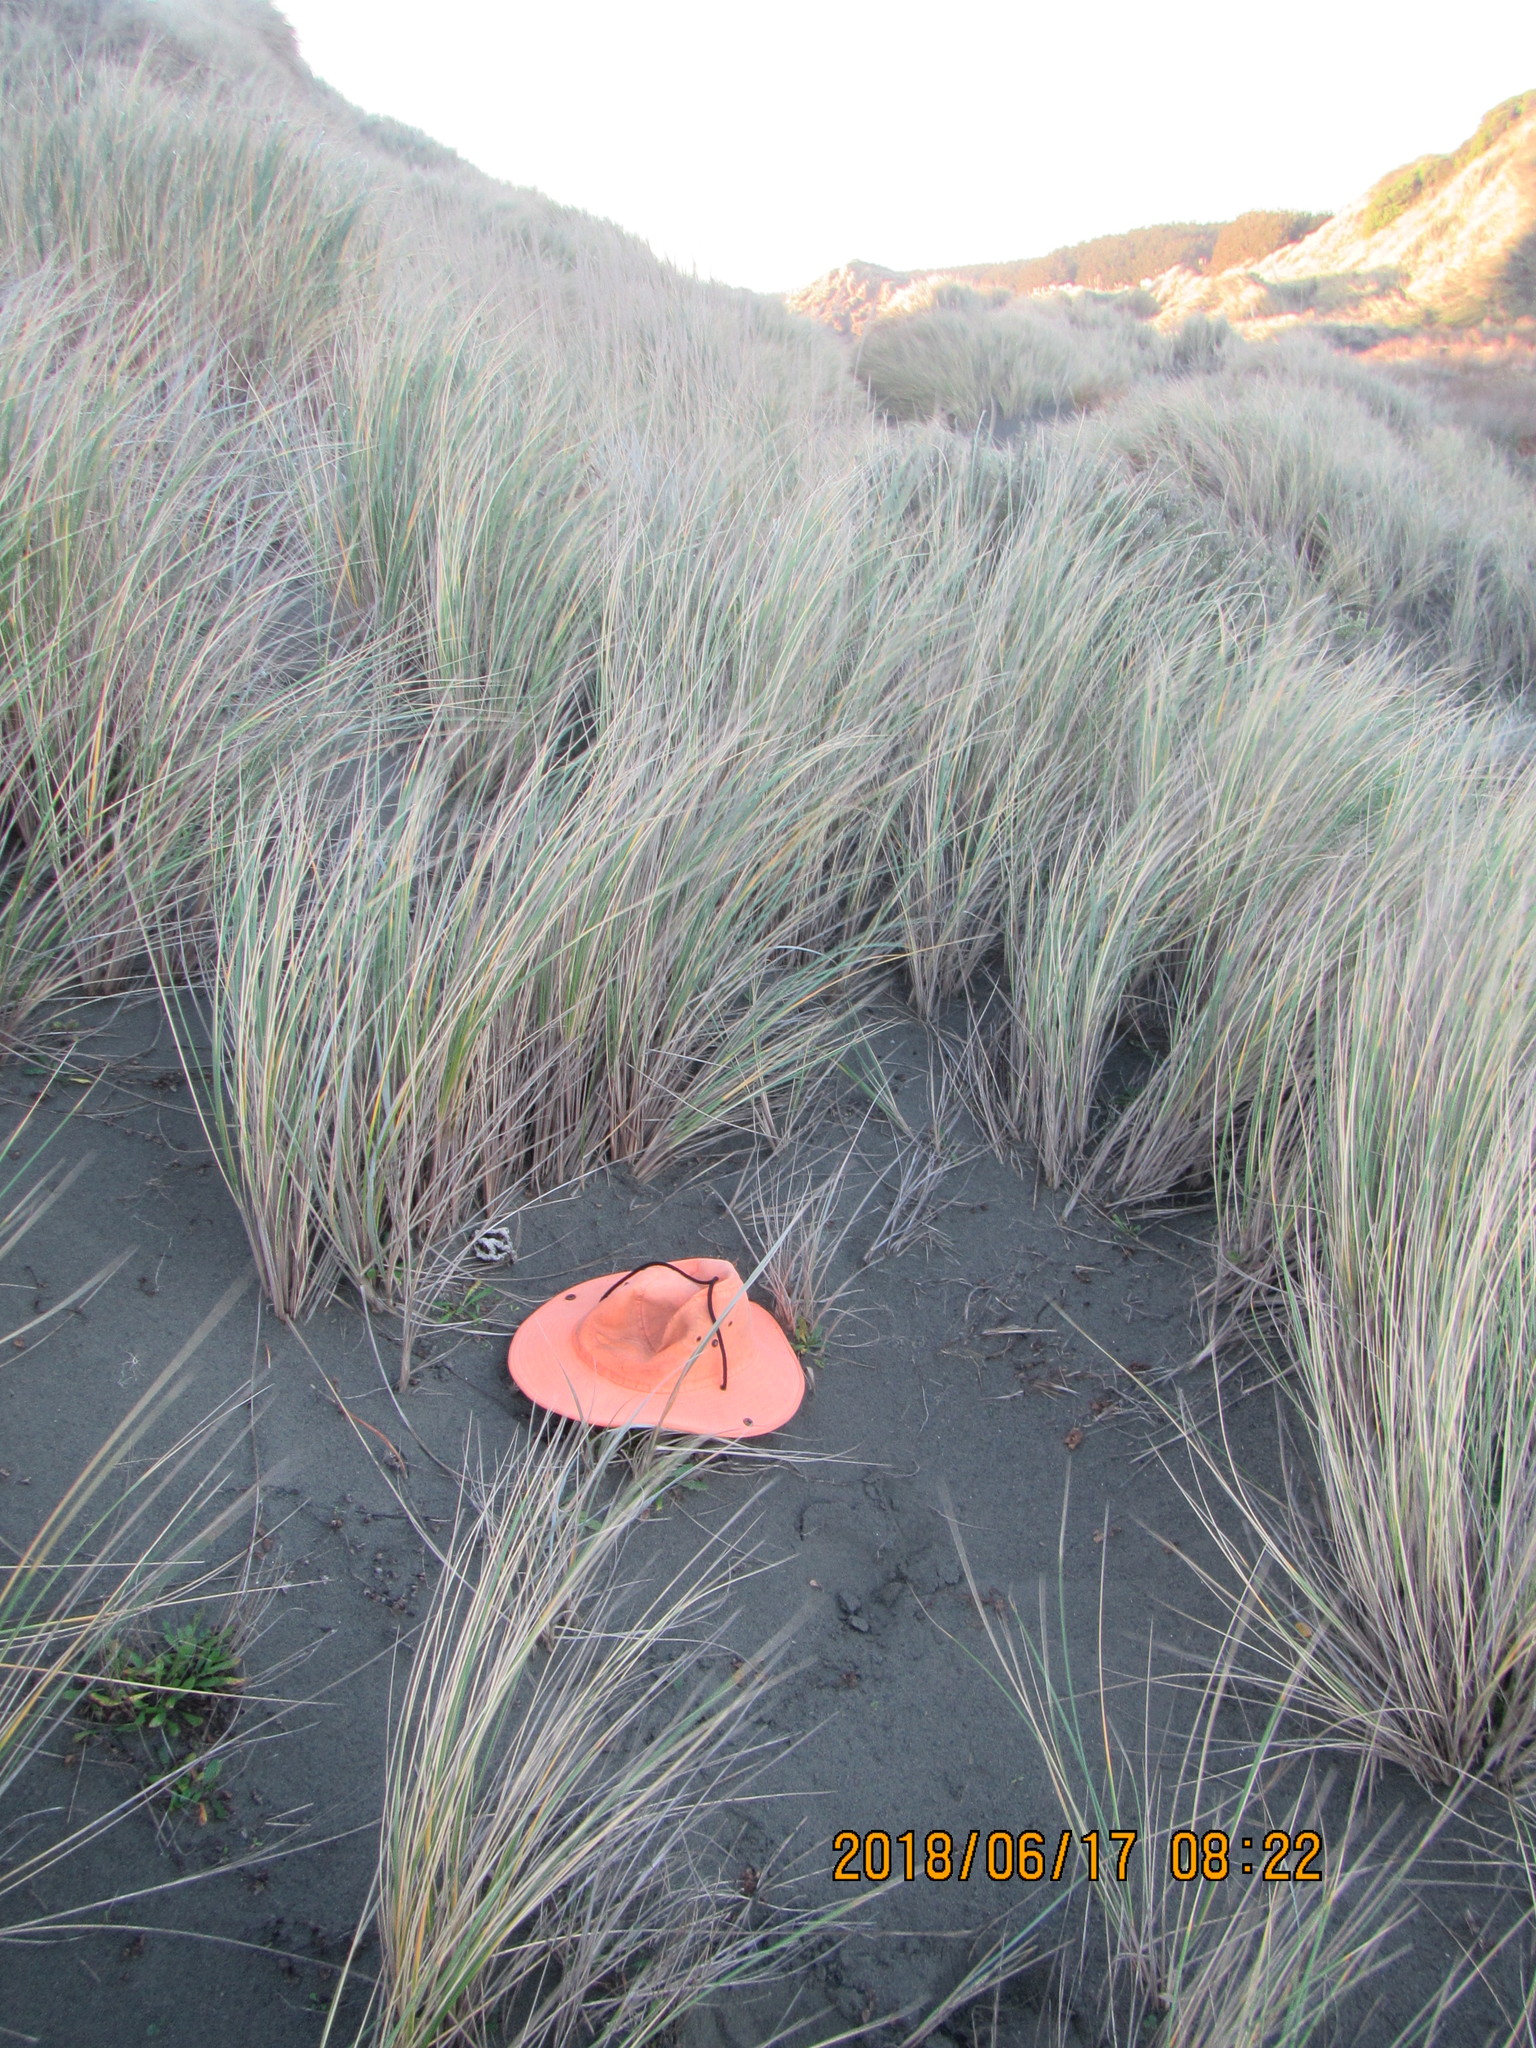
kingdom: Fungi
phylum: Basidiomycota
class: Agaricomycetes
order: Phallales
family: Phallaceae
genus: Ileodictyon
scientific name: Ileodictyon cibarium
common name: Basket fungus
